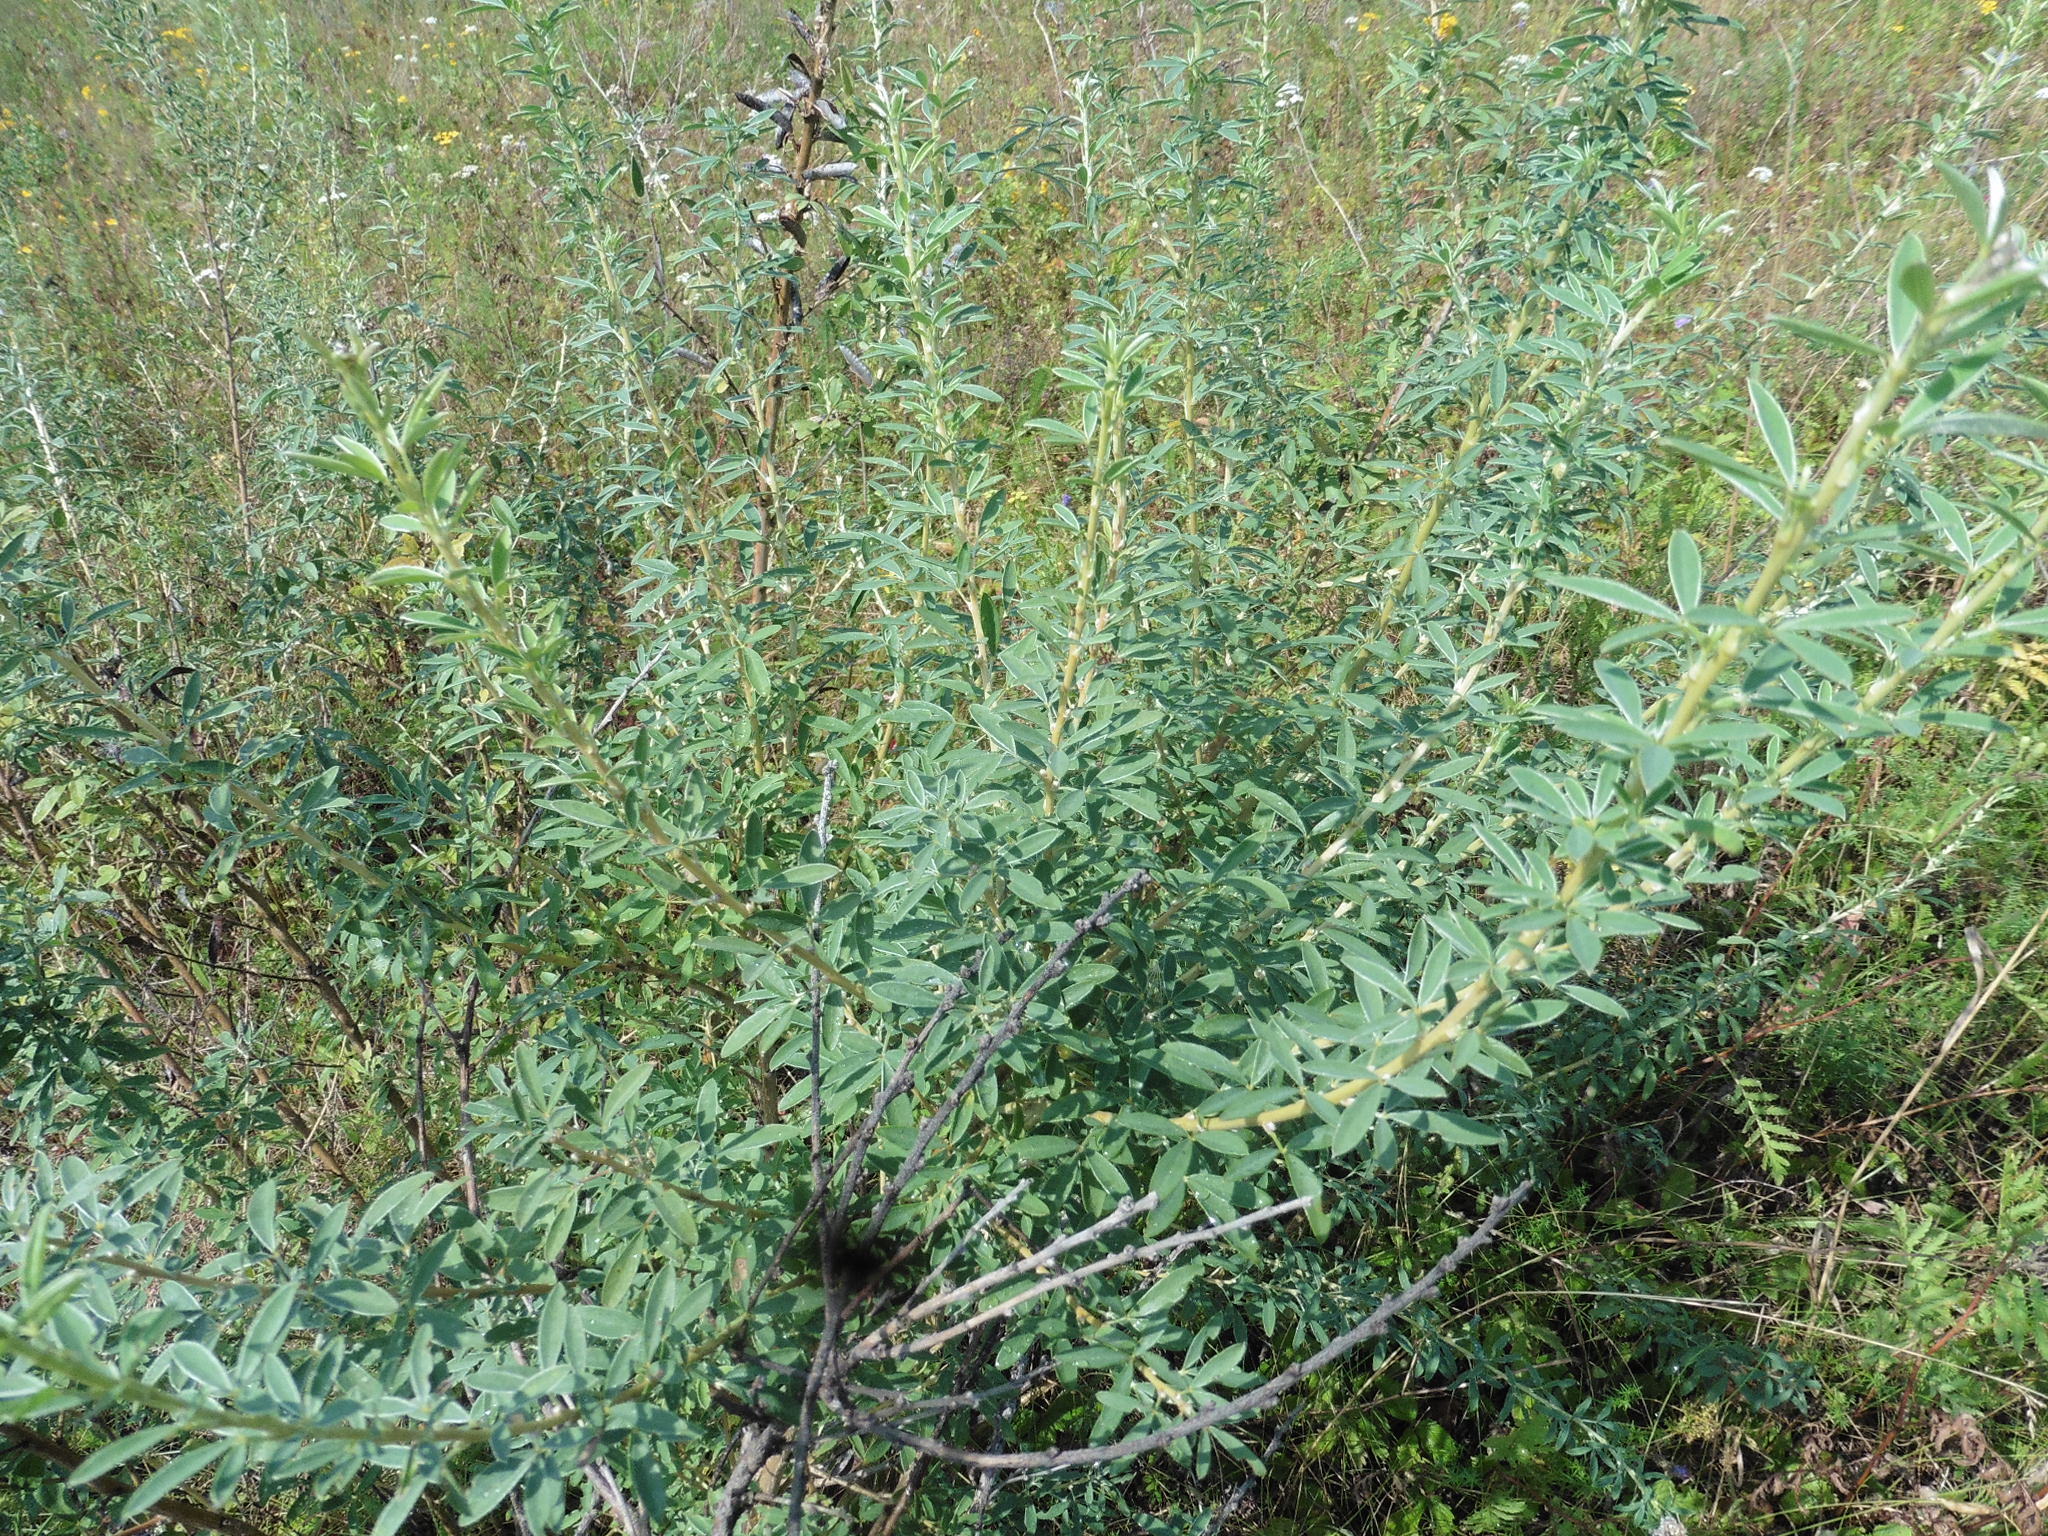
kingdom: Plantae
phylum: Tracheophyta
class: Magnoliopsida
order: Fabales
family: Fabaceae
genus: Chamaecytisus
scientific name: Chamaecytisus ruthenicus
